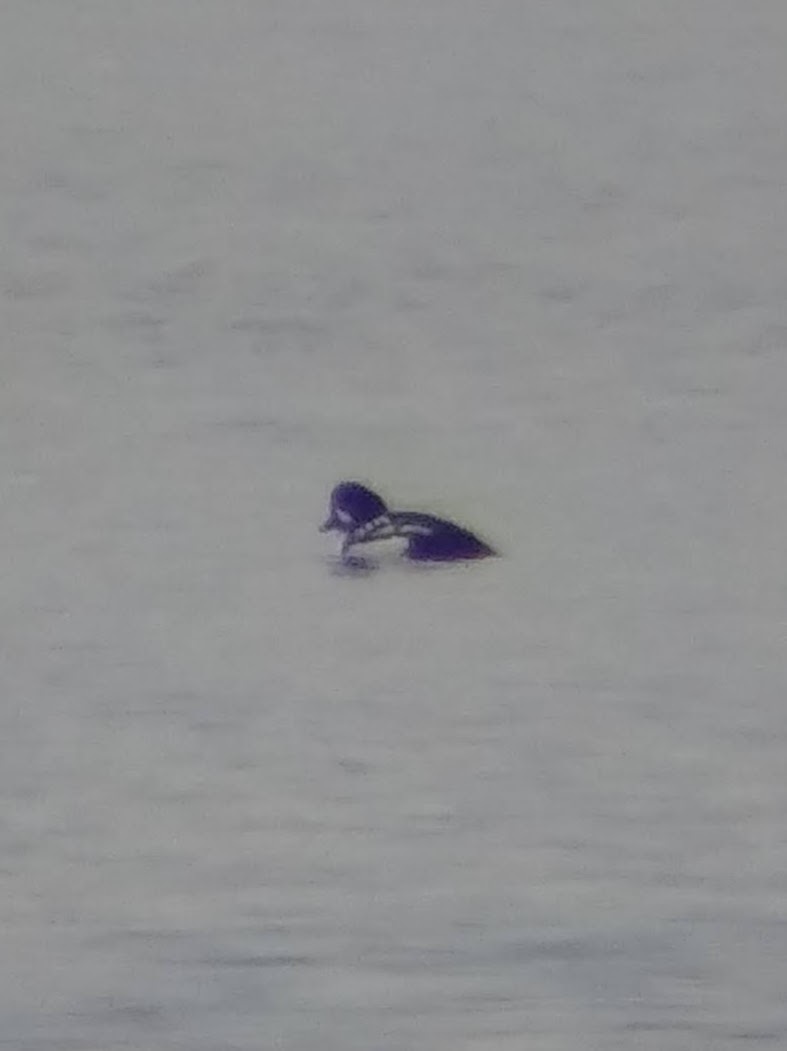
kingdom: Animalia
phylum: Chordata
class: Aves
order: Anseriformes
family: Anatidae
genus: Bucephala
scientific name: Bucephala islandica
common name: Barrow's goldeneye
